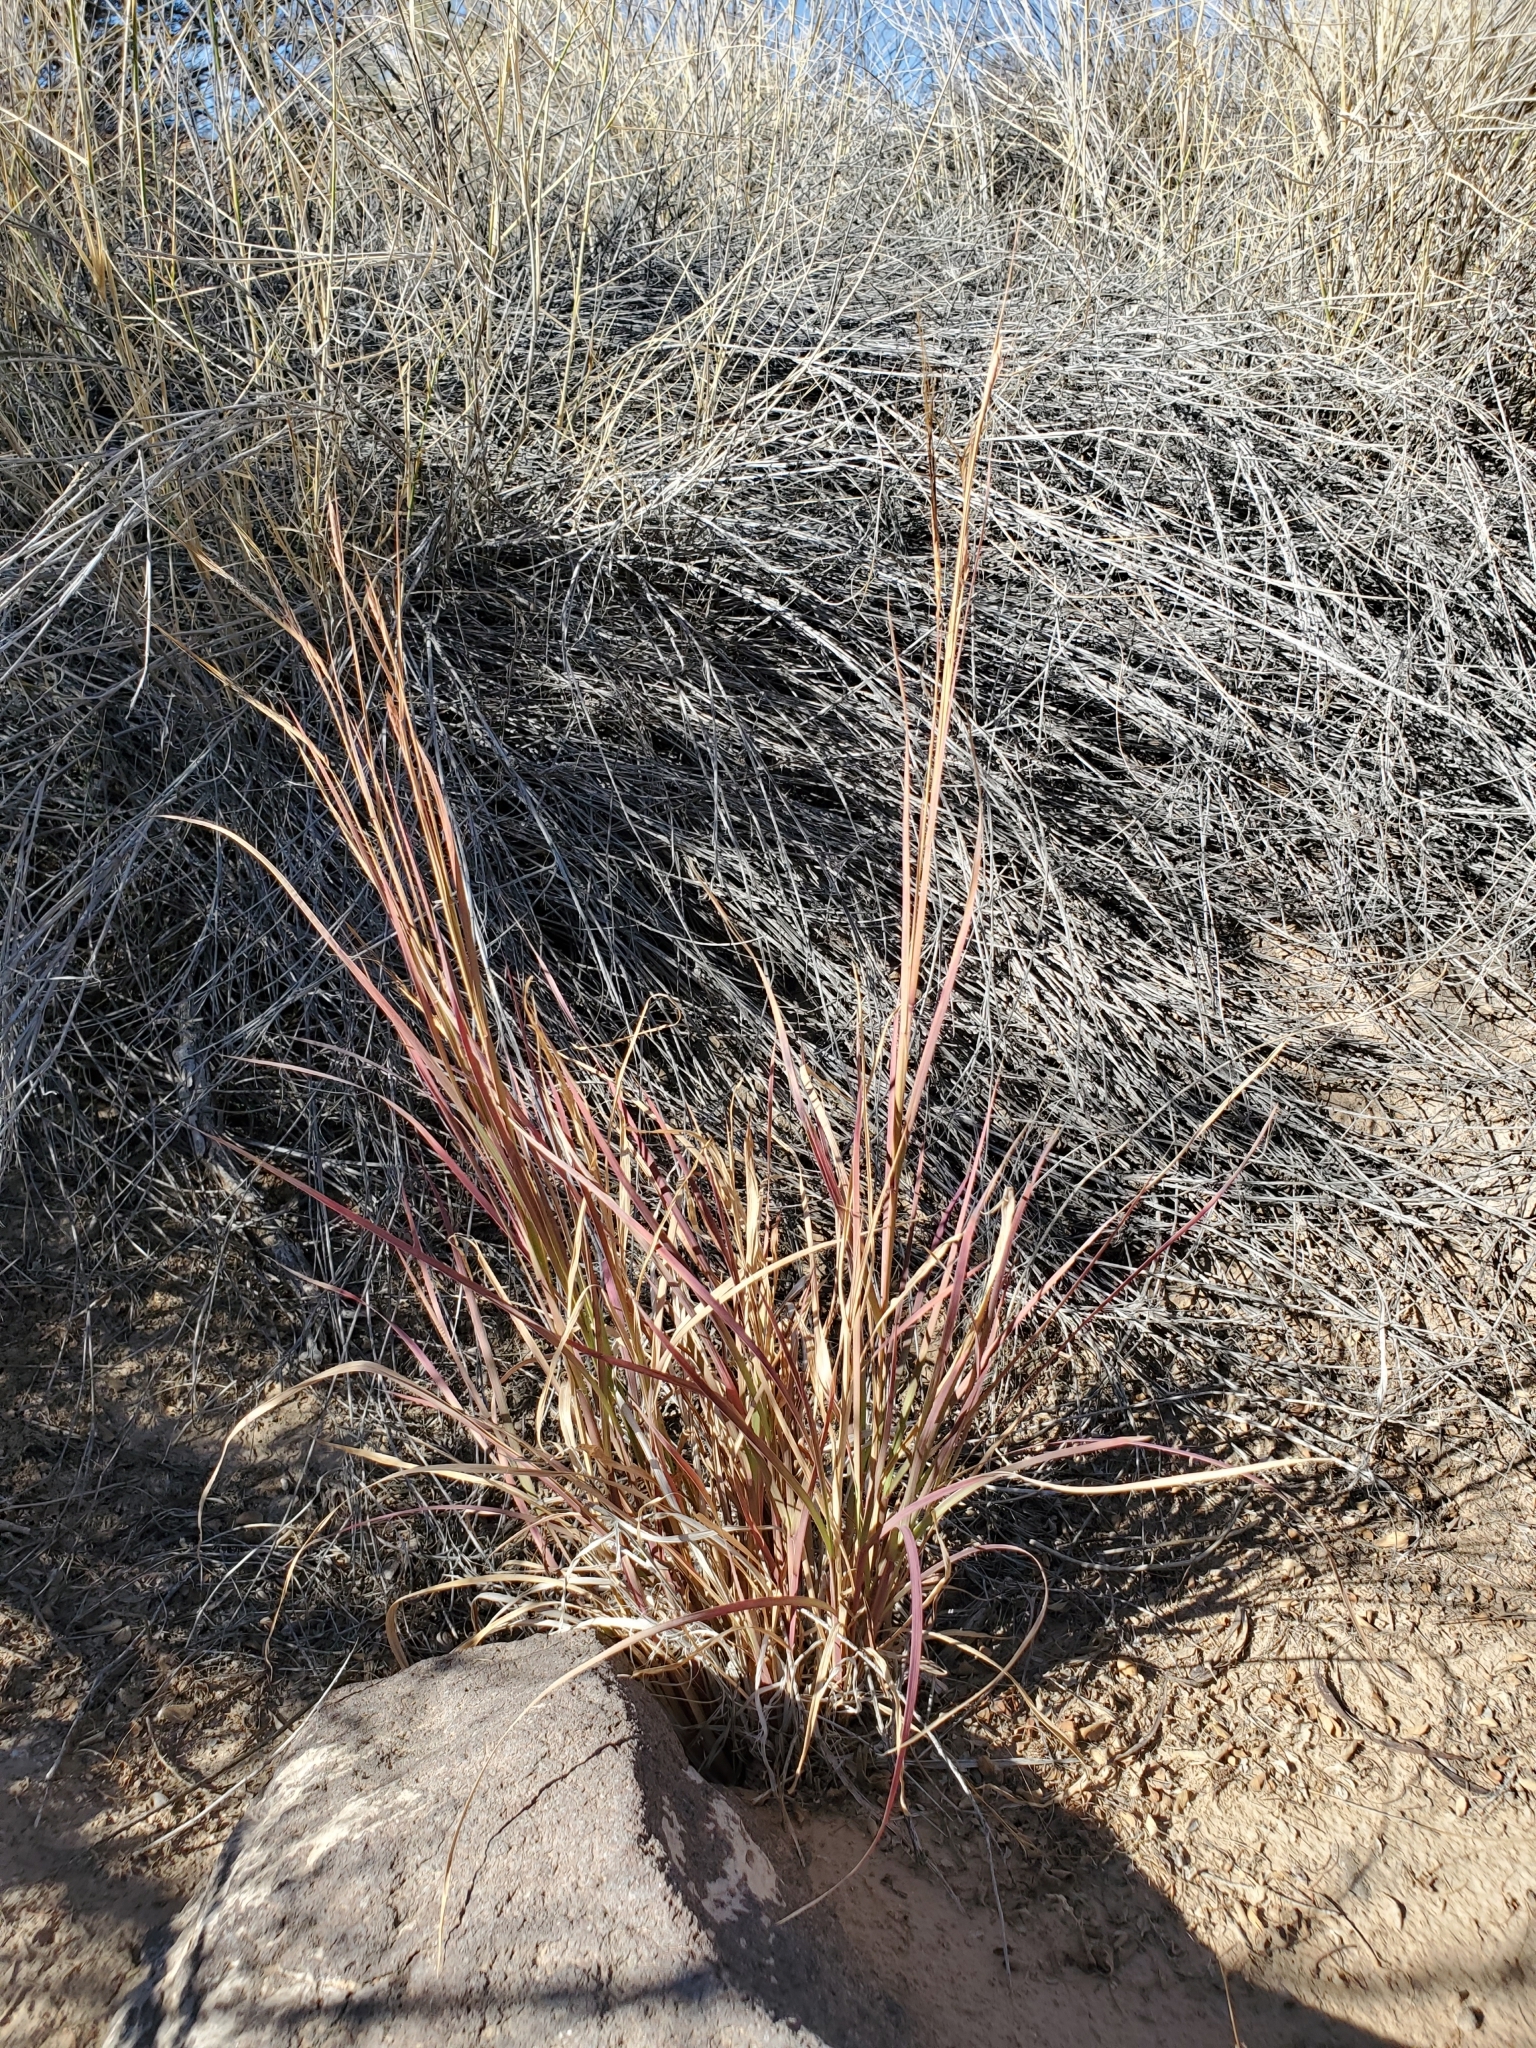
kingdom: Plantae
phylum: Tracheophyta
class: Liliopsida
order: Poales
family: Poaceae
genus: Heteropogon
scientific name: Heteropogon contortus
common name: Tanglehead
